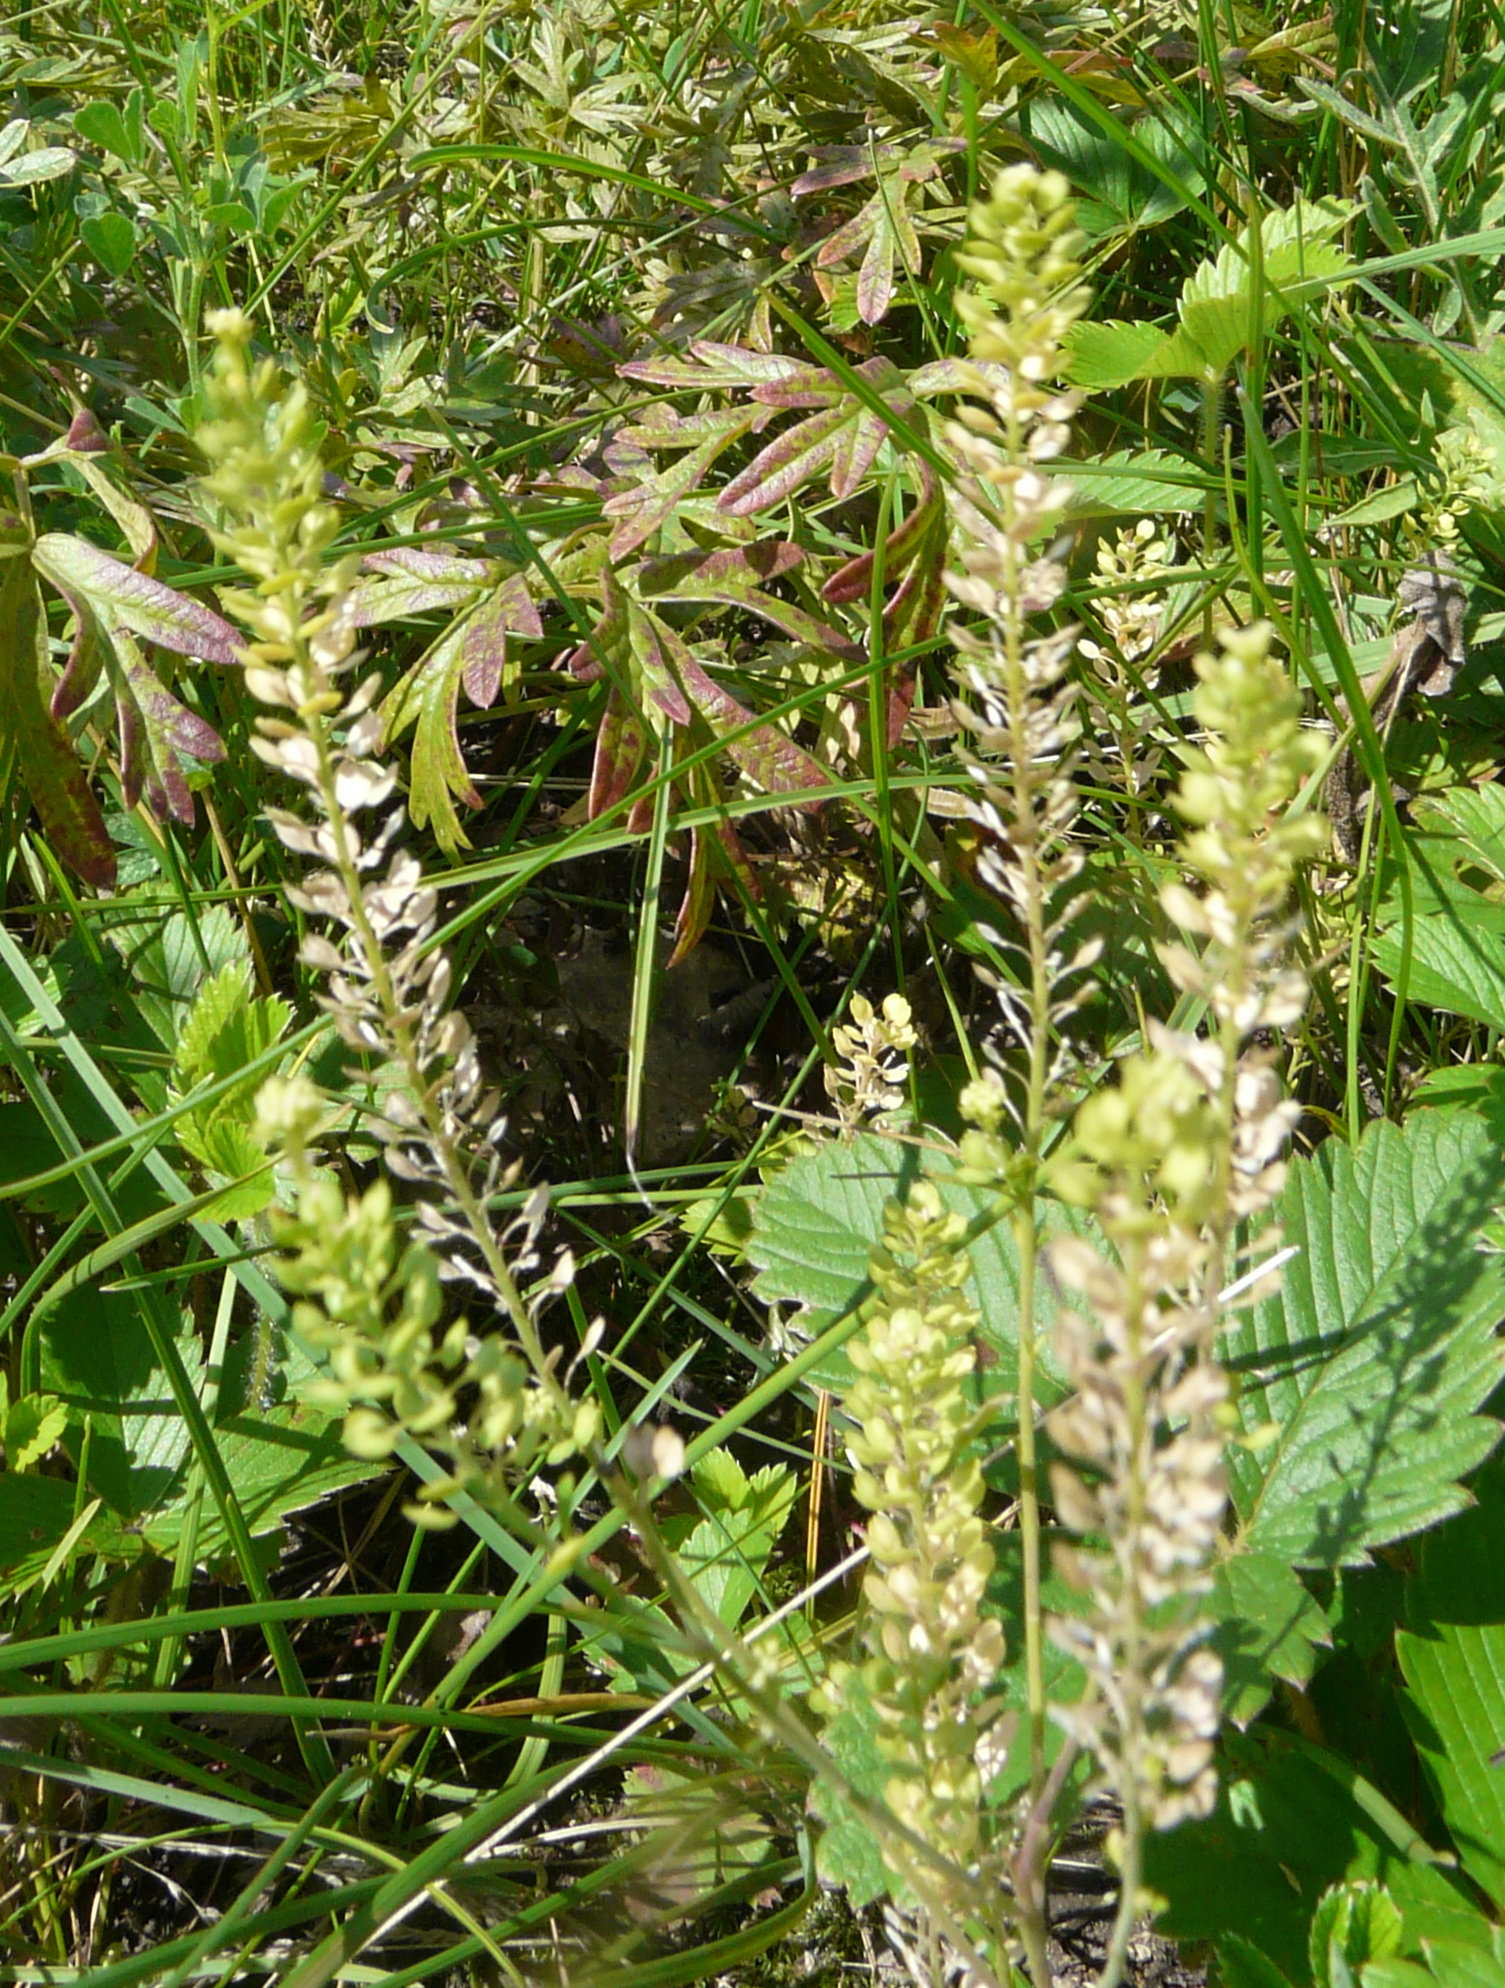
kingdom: Plantae
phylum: Tracheophyta
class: Magnoliopsida
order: Brassicales
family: Brassicaceae
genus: Lepidium
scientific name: Lepidium densiflorum
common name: Miner's pepperwort
